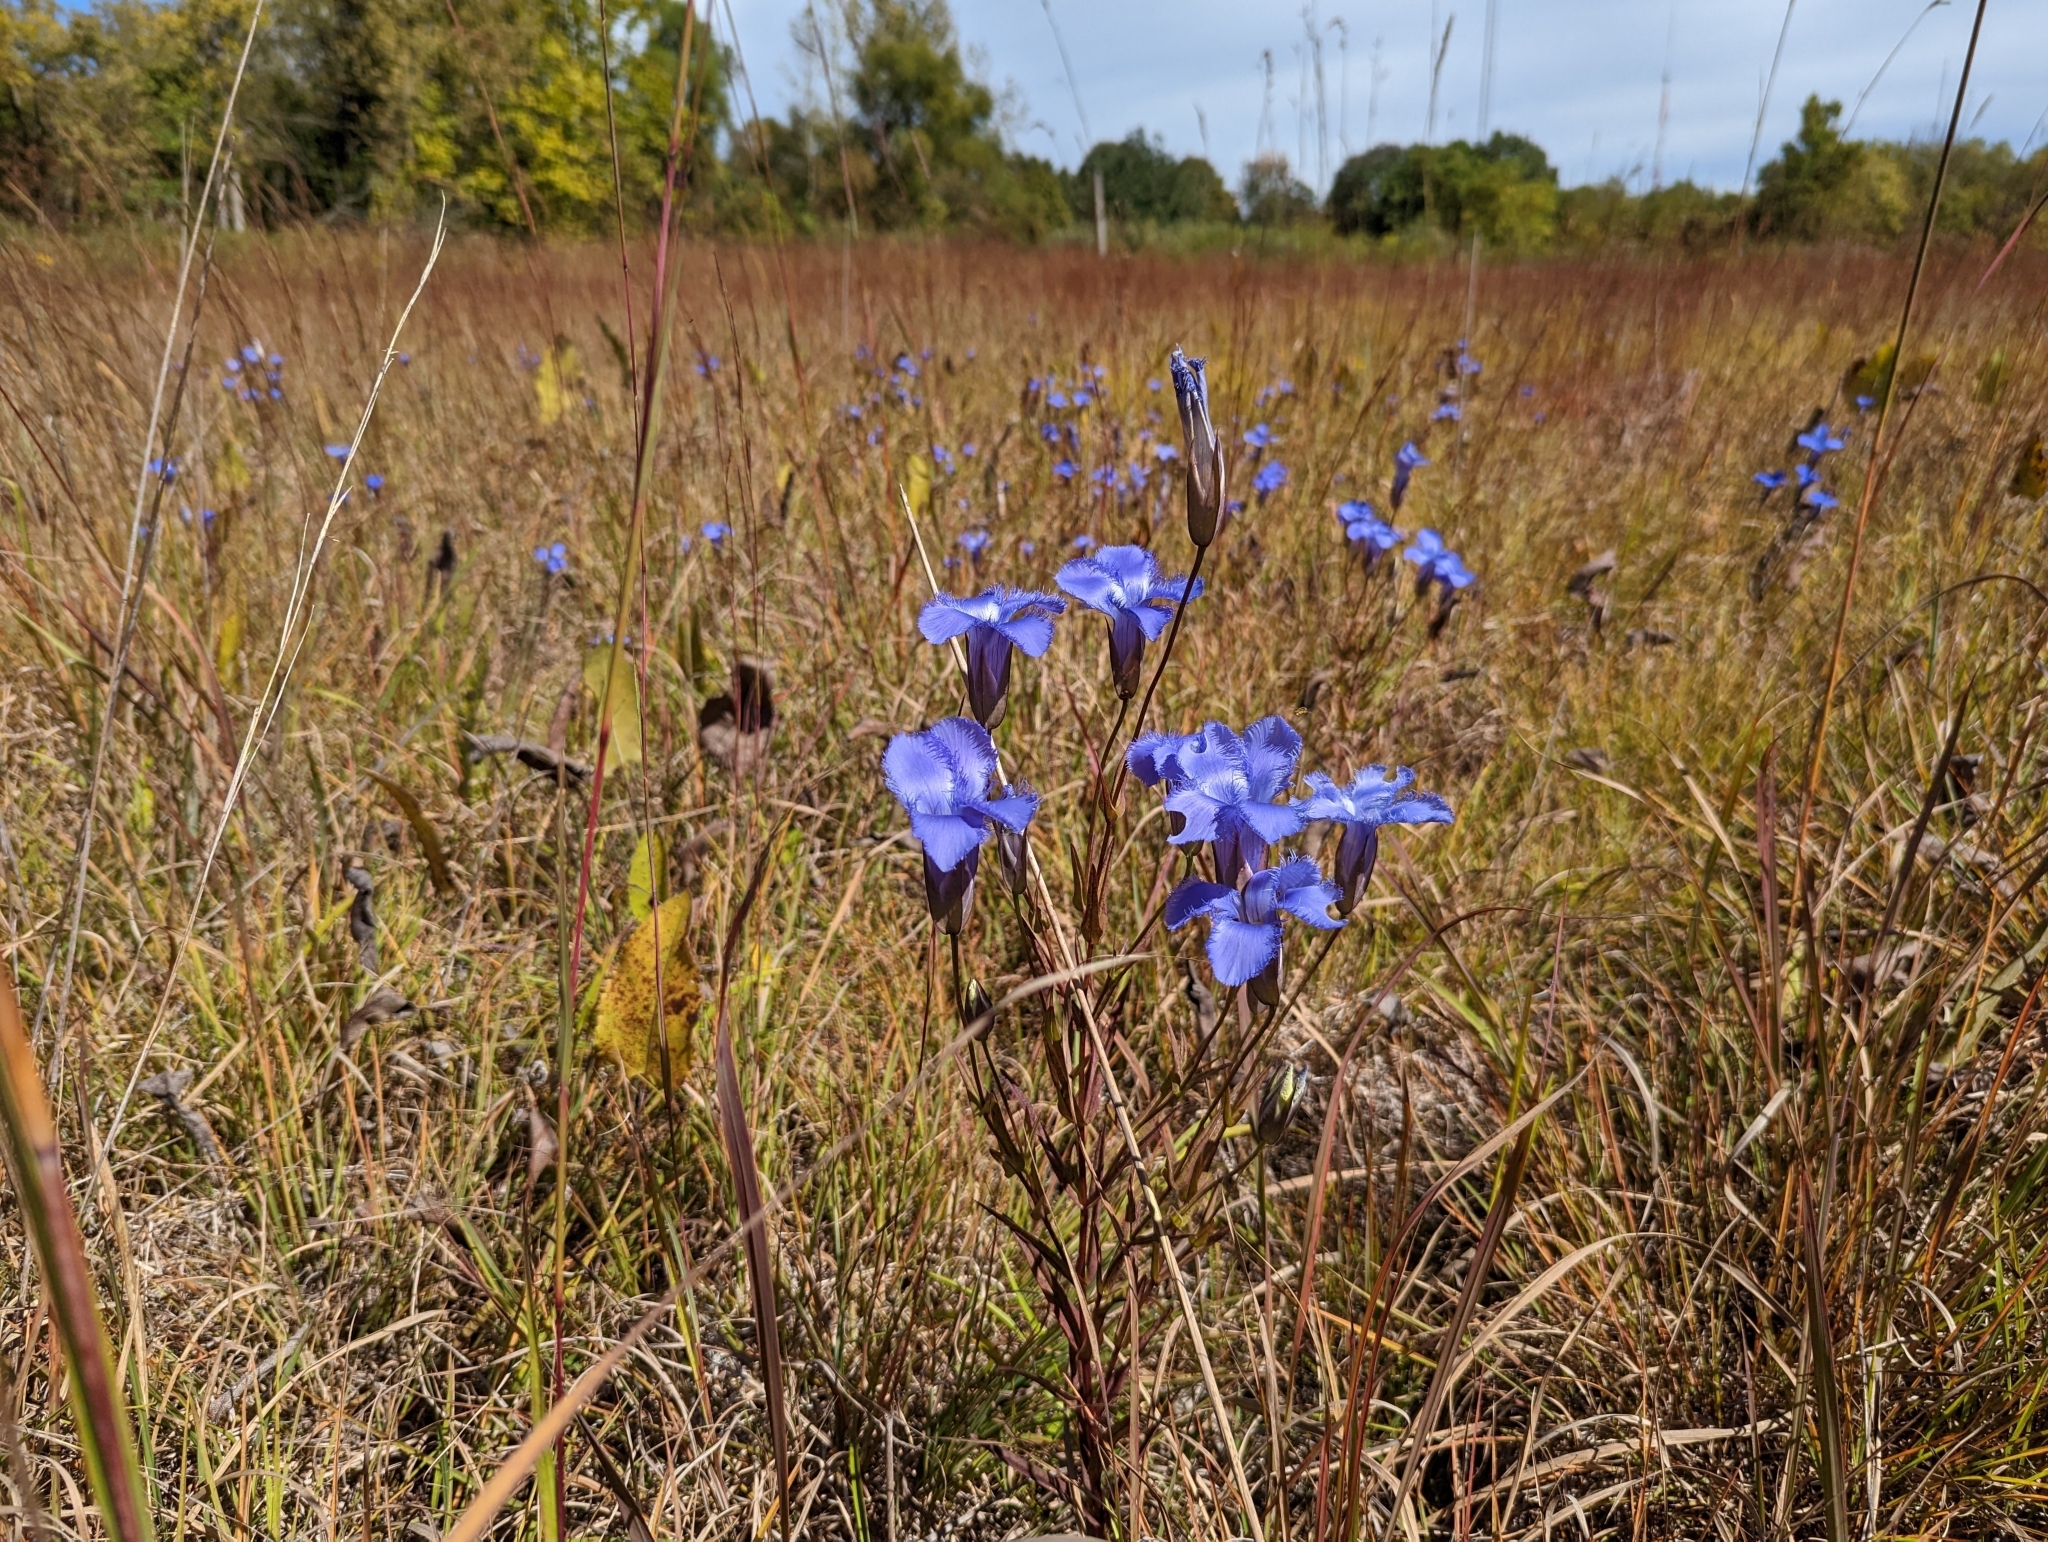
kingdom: Plantae
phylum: Tracheophyta
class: Magnoliopsida
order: Gentianales
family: Gentianaceae
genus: Gentianopsis
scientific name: Gentianopsis crinita
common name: Fringed-gentian
